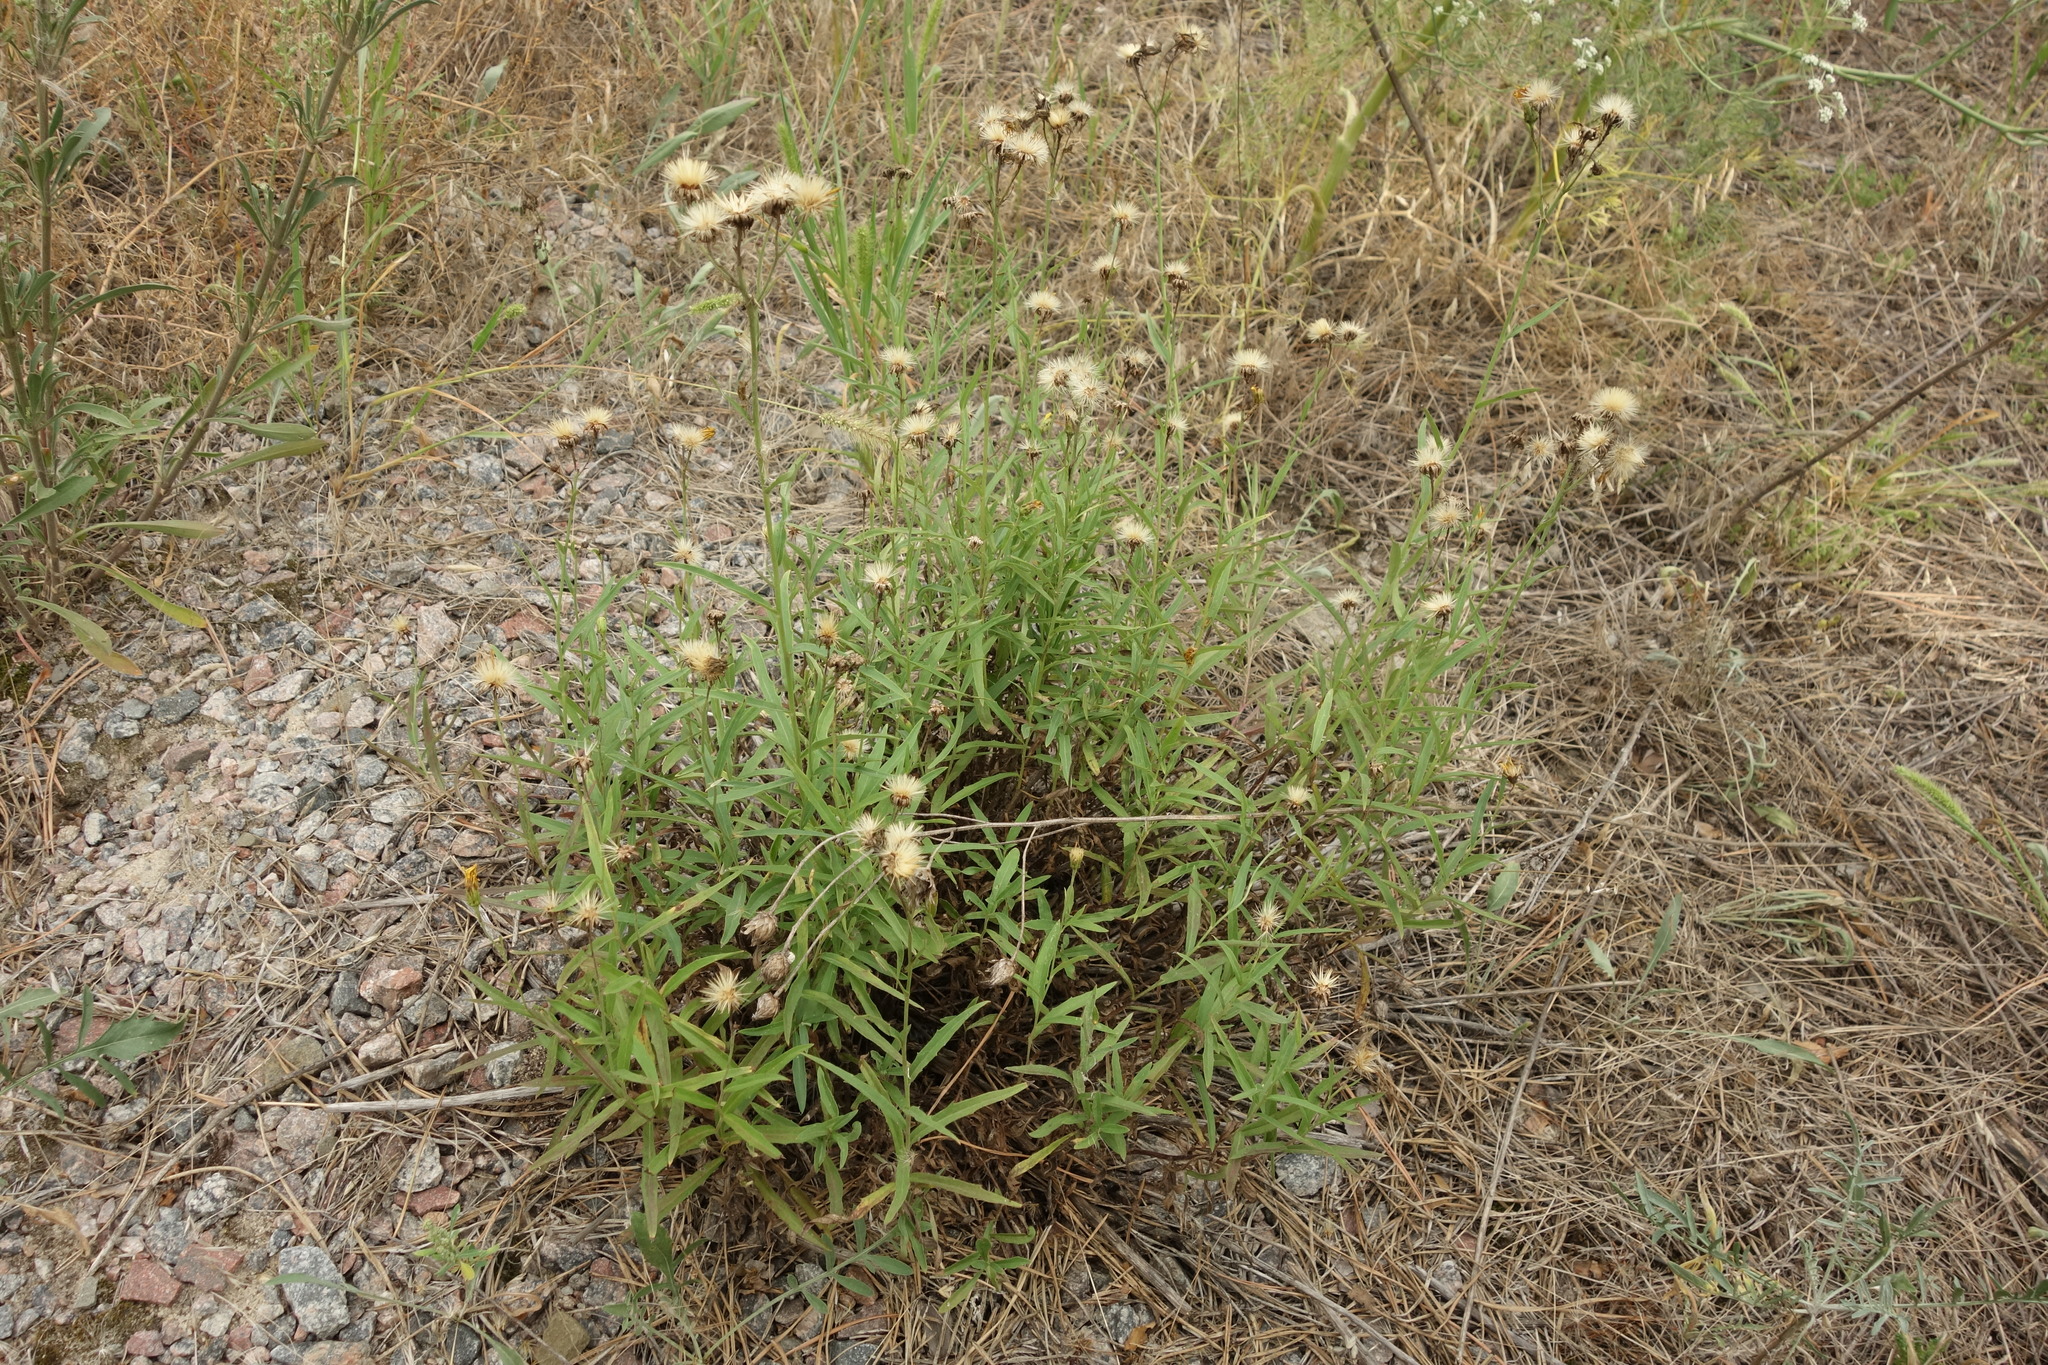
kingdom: Plantae
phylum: Tracheophyta
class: Magnoliopsida
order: Asterales
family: Asteraceae
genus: Hieracium
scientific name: Hieracium umbellatum
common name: Northern hawkweed
